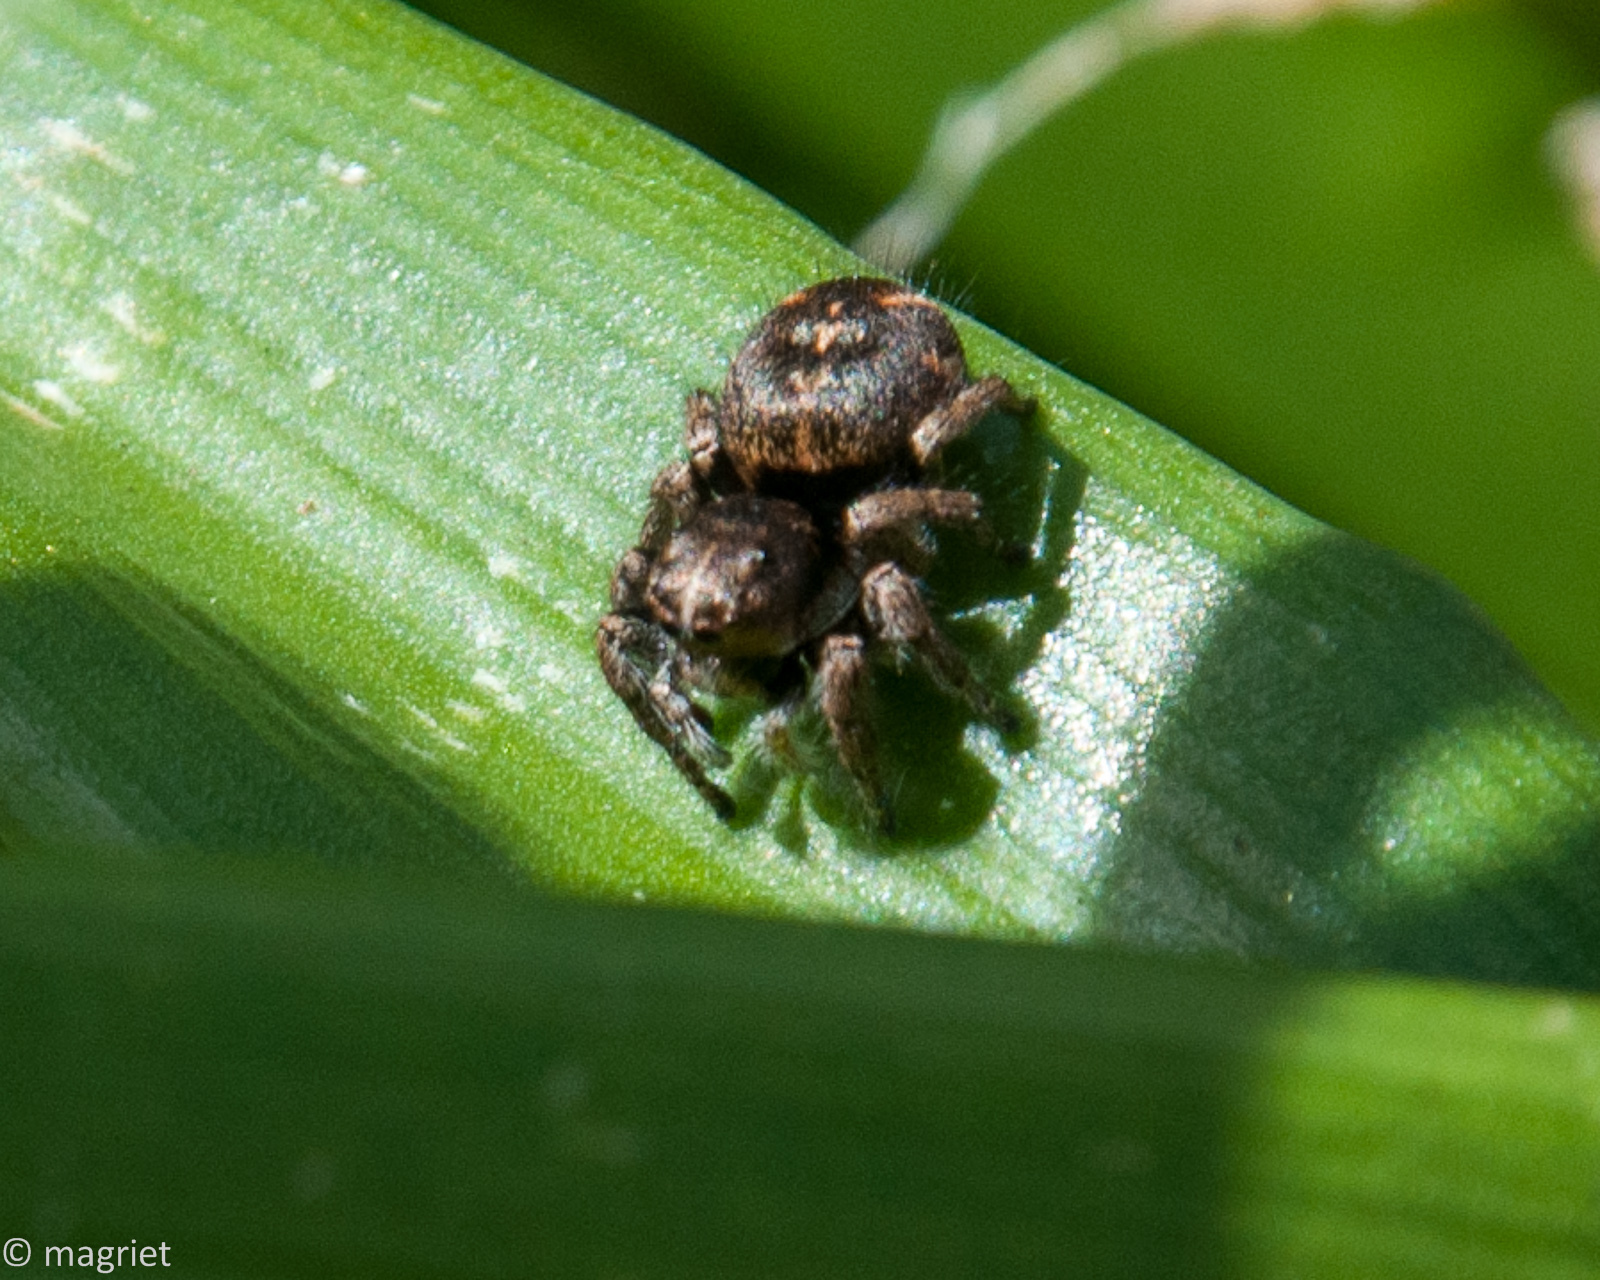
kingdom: Animalia
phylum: Arthropoda
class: Arachnida
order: Araneae
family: Salticidae
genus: Baryphas
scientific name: Baryphas ahenus
